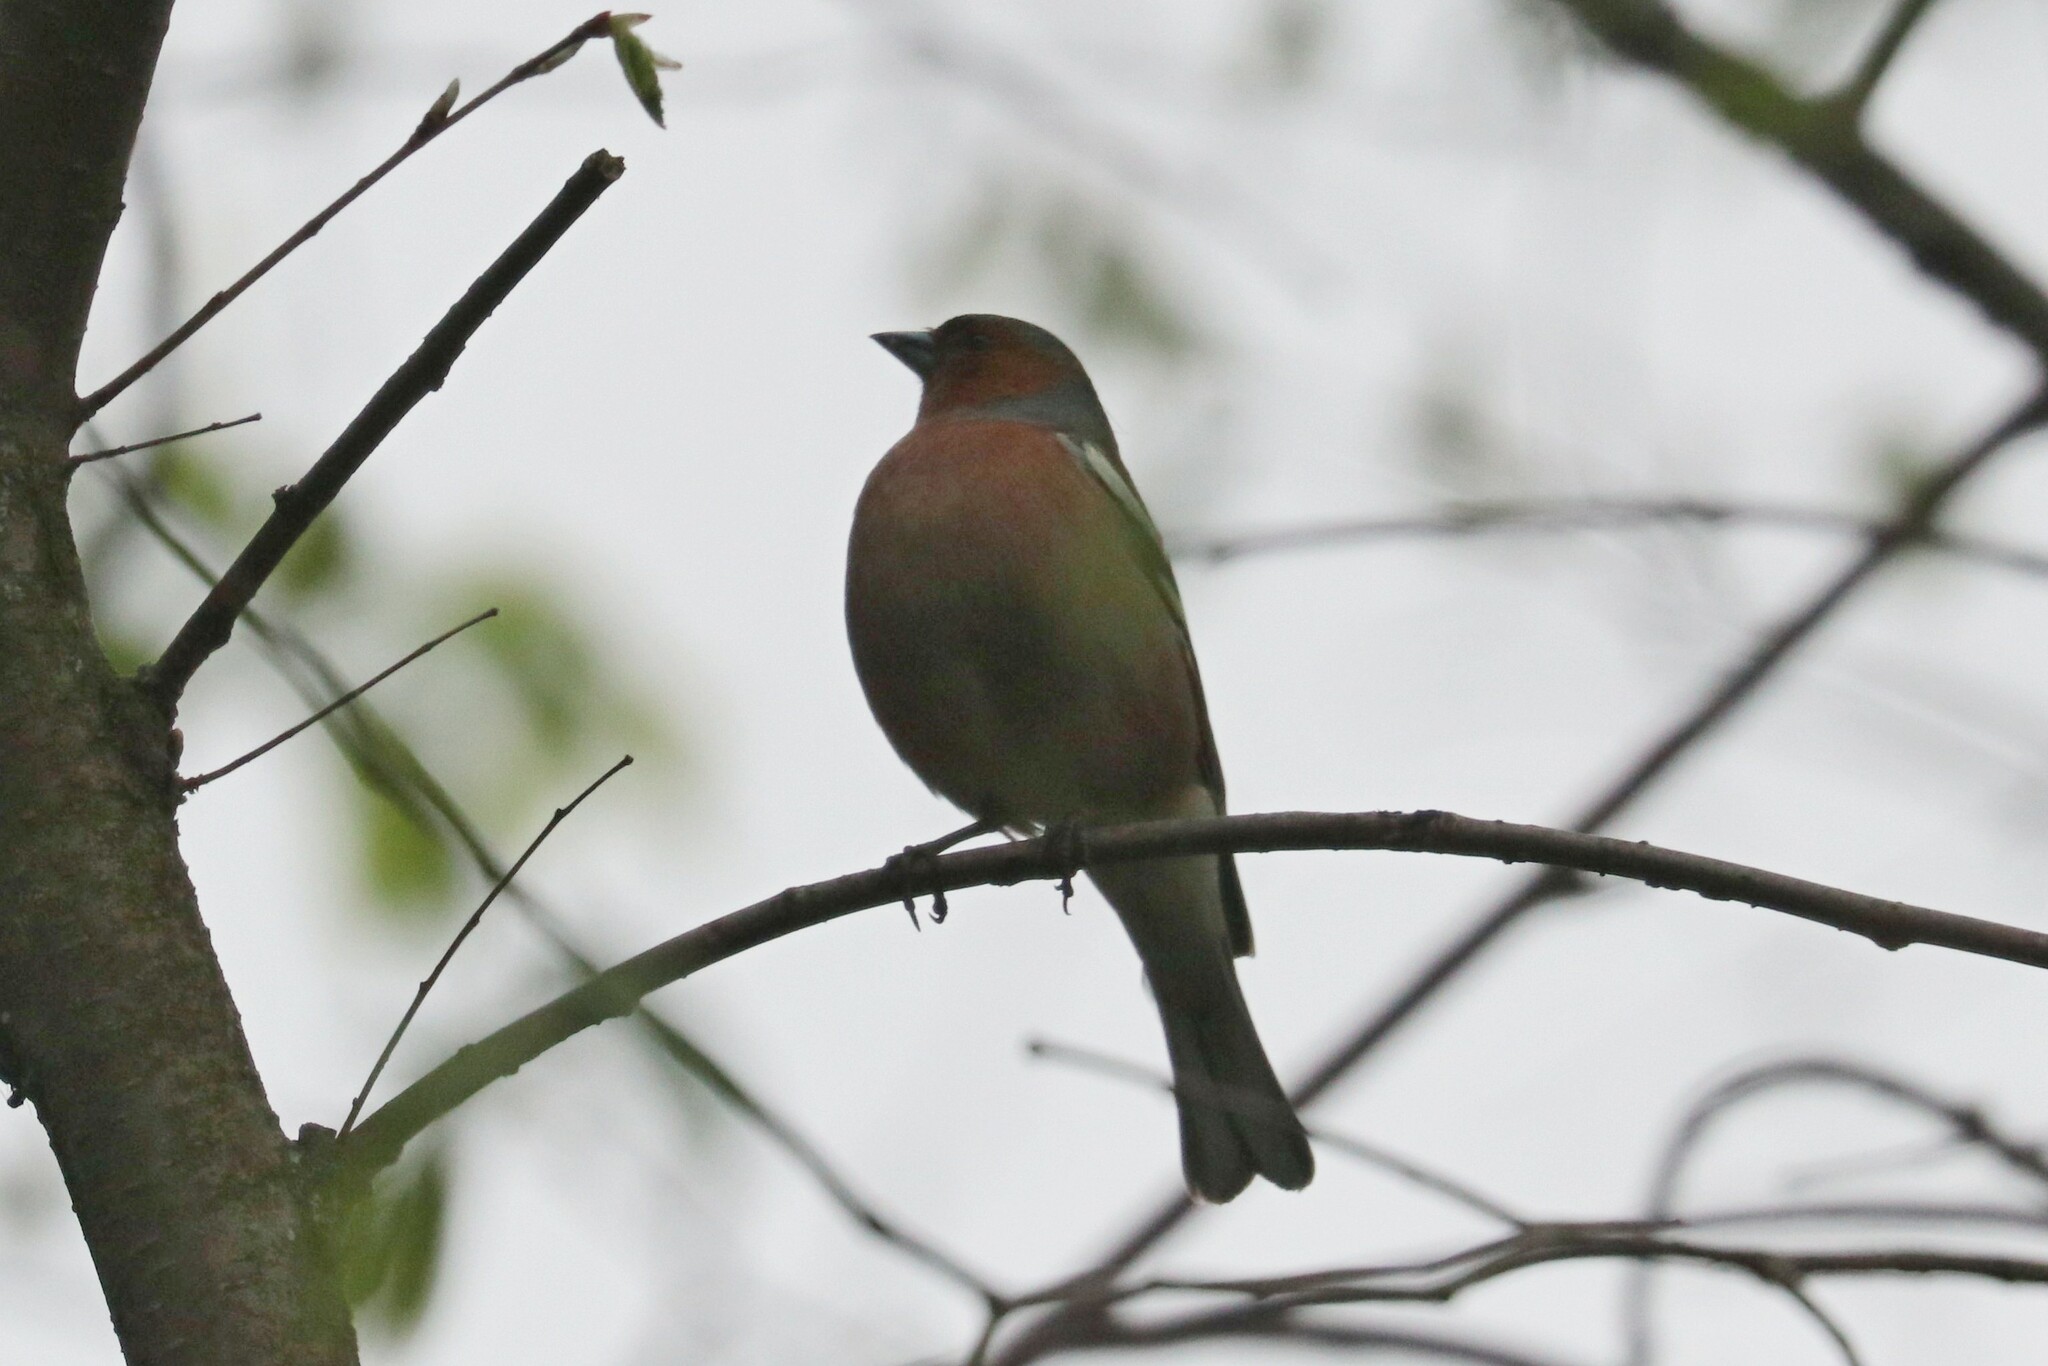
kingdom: Animalia
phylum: Chordata
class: Aves
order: Passeriformes
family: Fringillidae
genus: Fringilla
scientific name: Fringilla coelebs
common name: Common chaffinch
